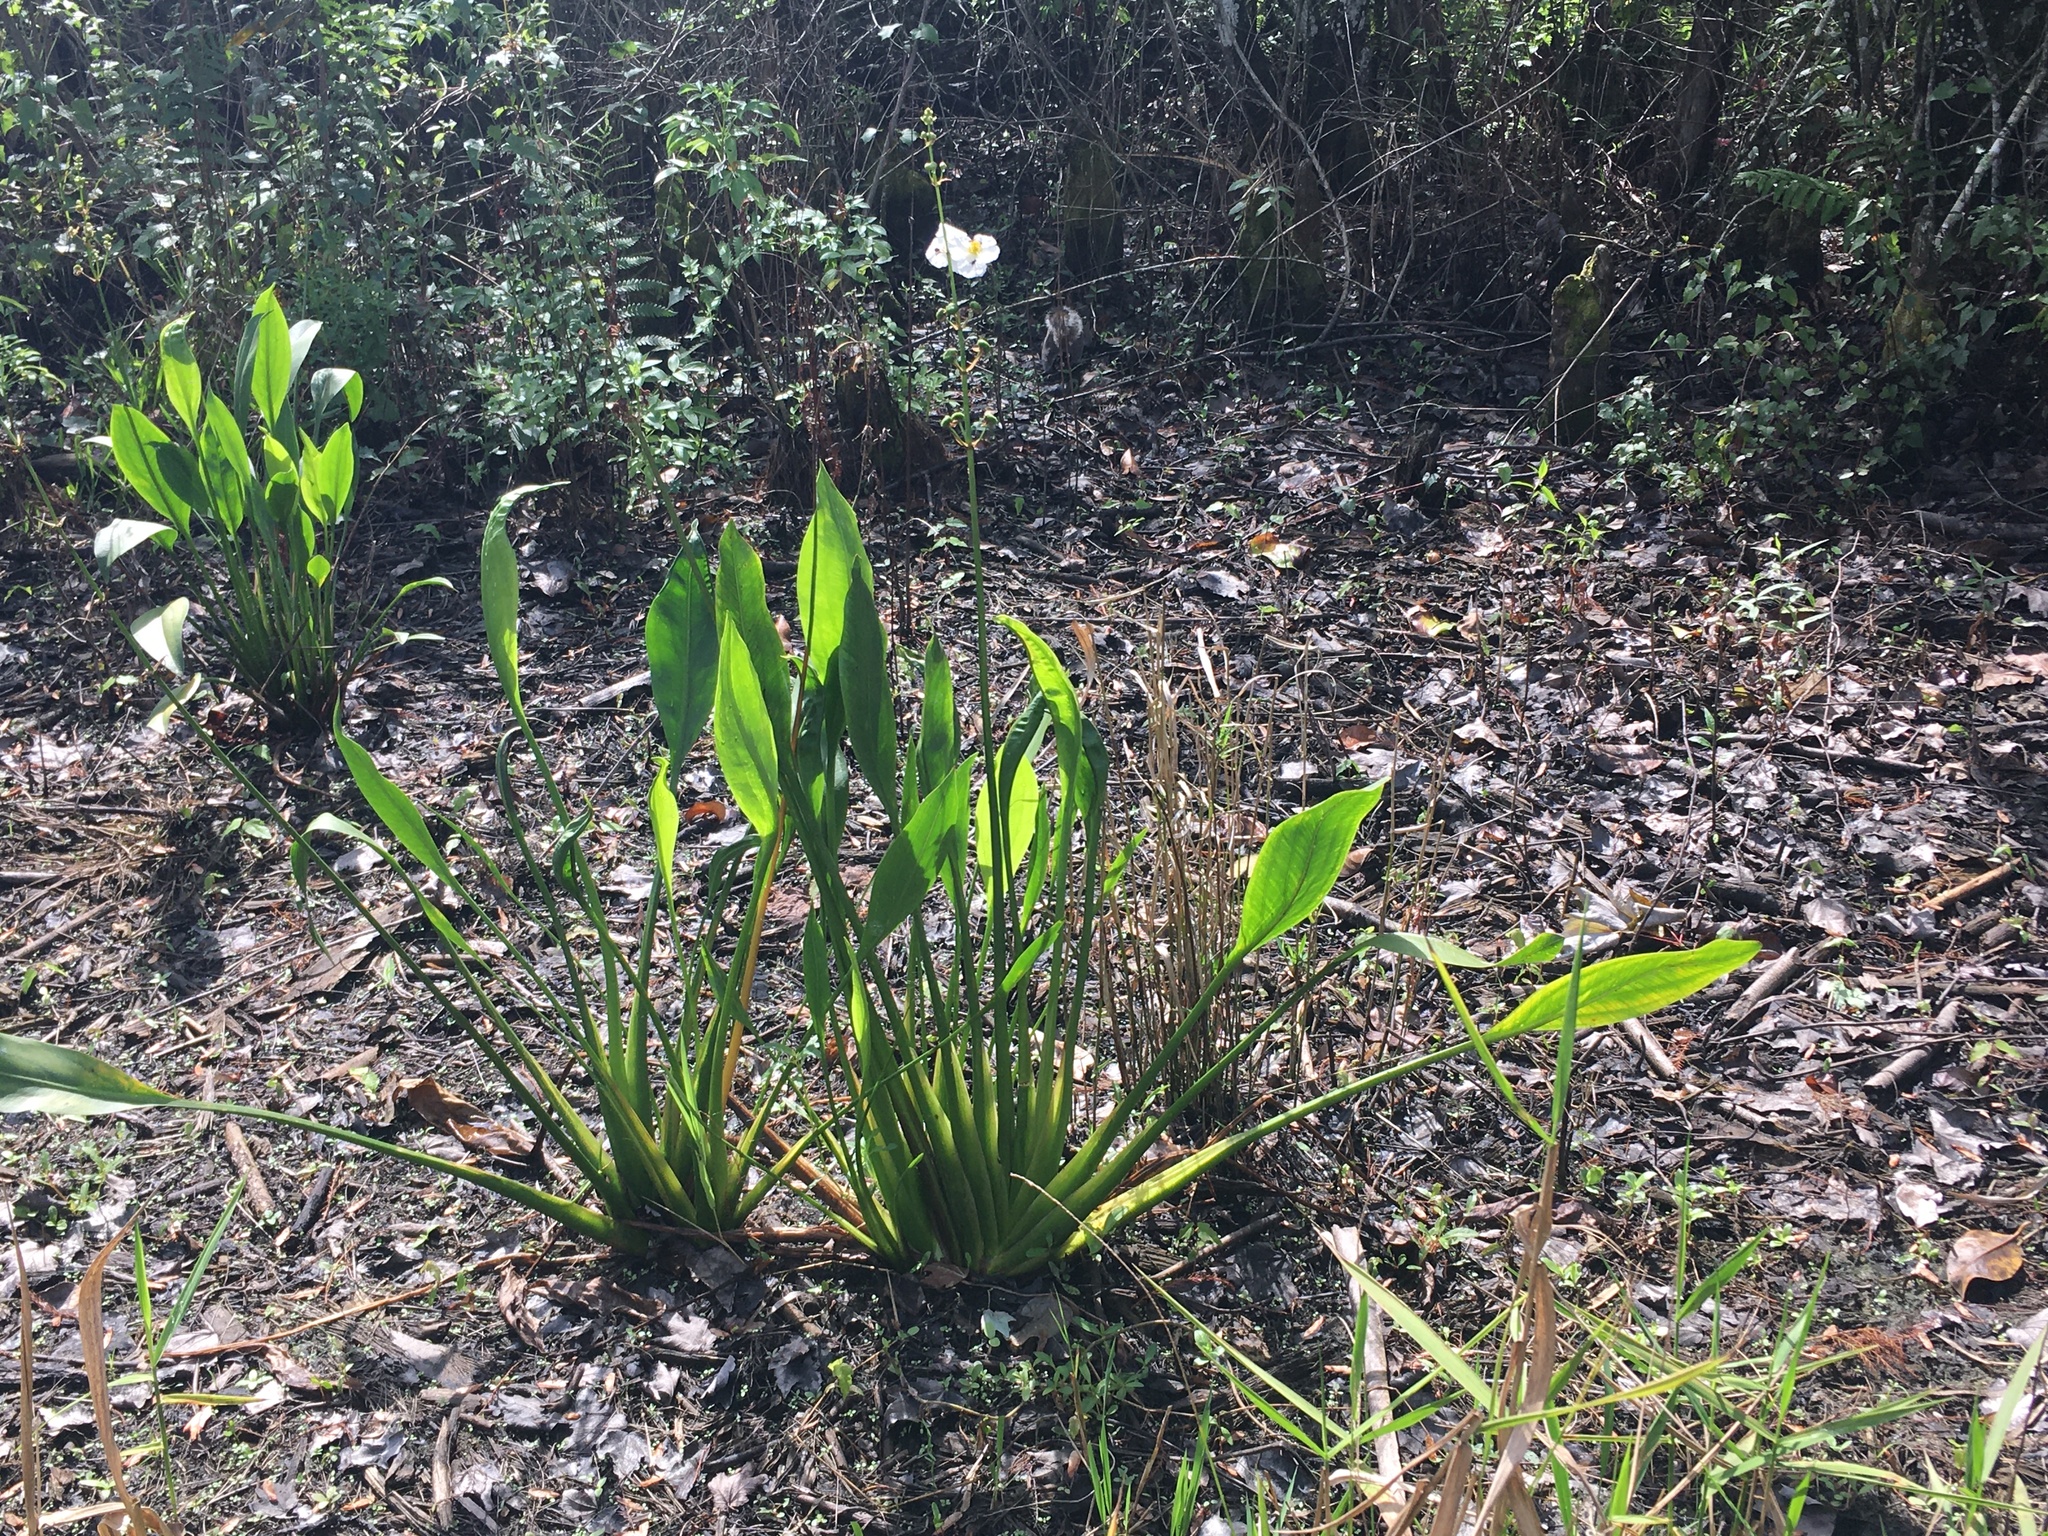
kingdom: Plantae
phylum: Tracheophyta
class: Liliopsida
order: Alismatales
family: Alismataceae
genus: Sagittaria
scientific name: Sagittaria lancifolia
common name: Lance-leaf arrowhead
